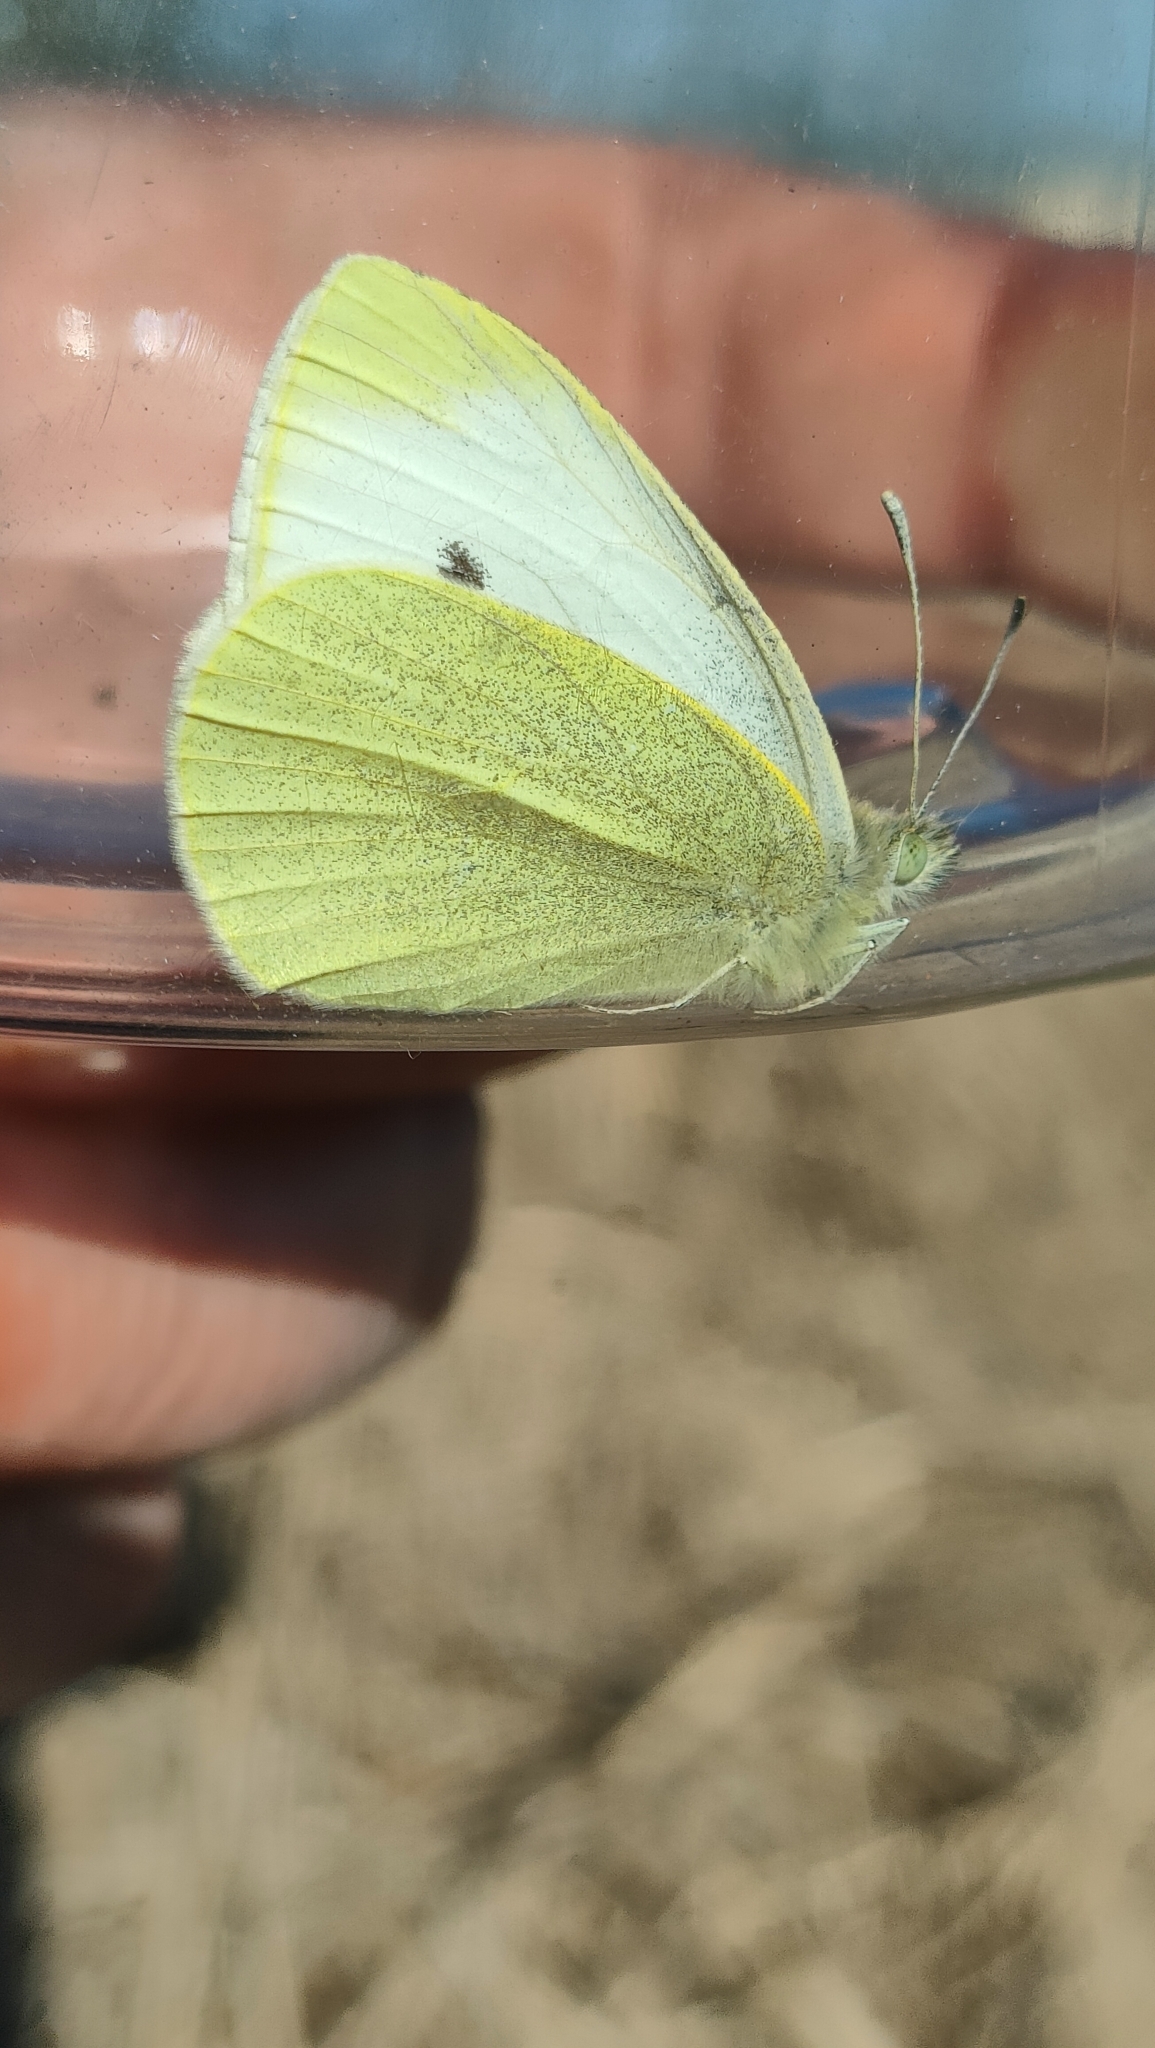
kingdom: Animalia
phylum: Arthropoda
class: Insecta
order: Lepidoptera
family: Pieridae
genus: Pieris
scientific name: Pieris rapae
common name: Small white
